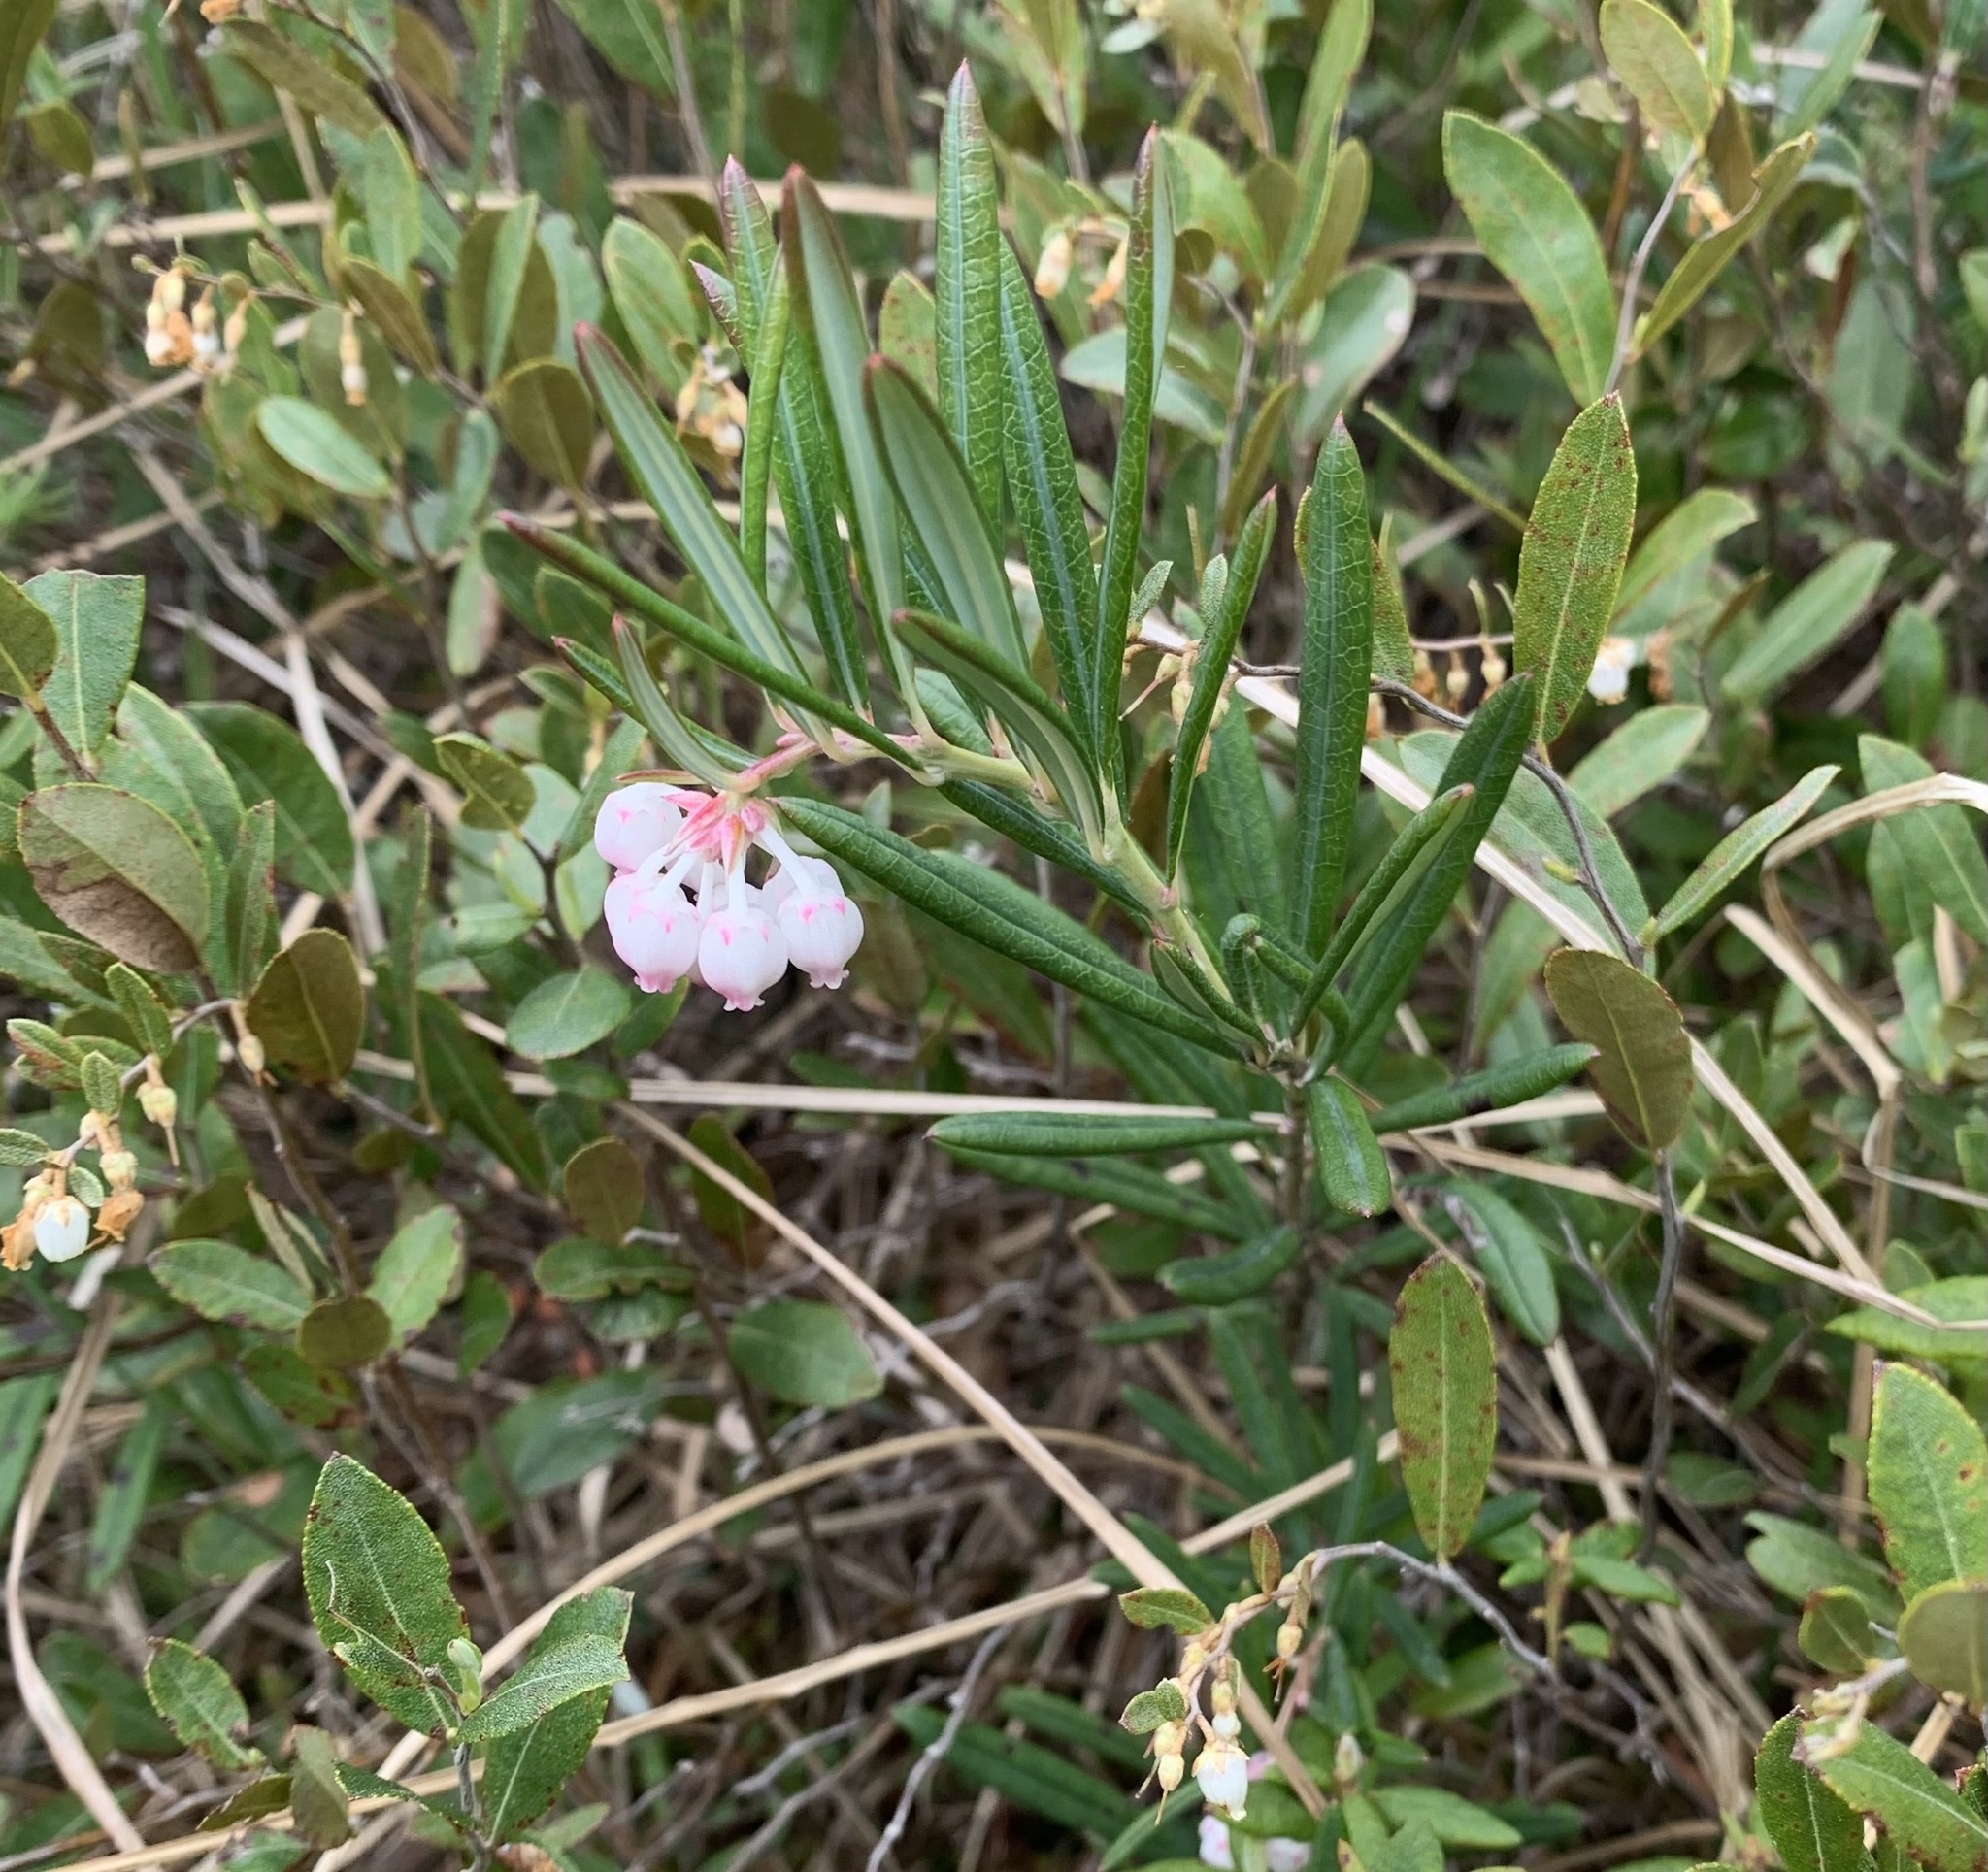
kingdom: Plantae
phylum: Tracheophyta
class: Magnoliopsida
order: Ericales
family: Ericaceae
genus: Andromeda
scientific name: Andromeda polifolia
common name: Bog-rosemary
